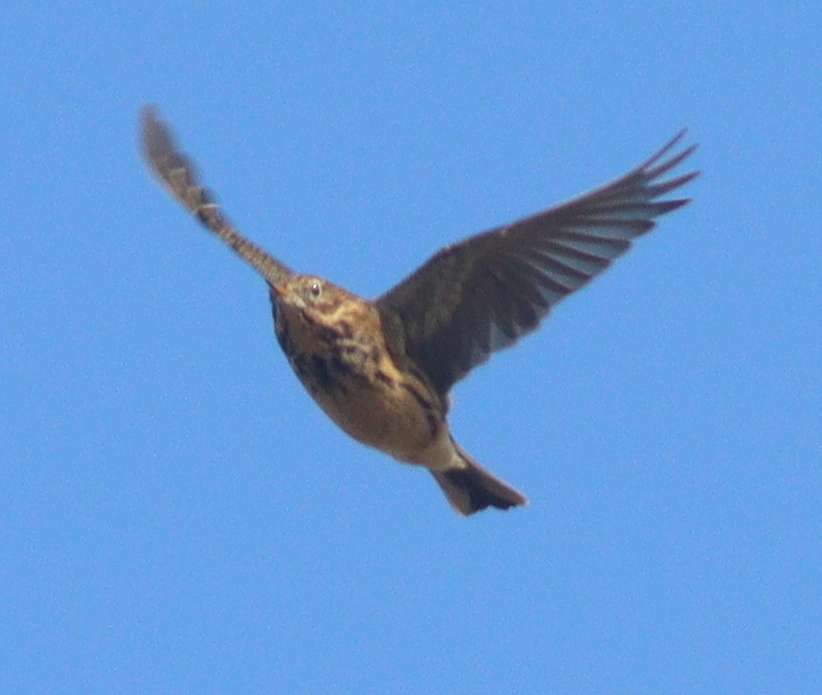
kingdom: Animalia
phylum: Chordata
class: Aves
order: Passeriformes
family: Motacillidae
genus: Anthus
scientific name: Anthus pratensis
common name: Meadow pipit
